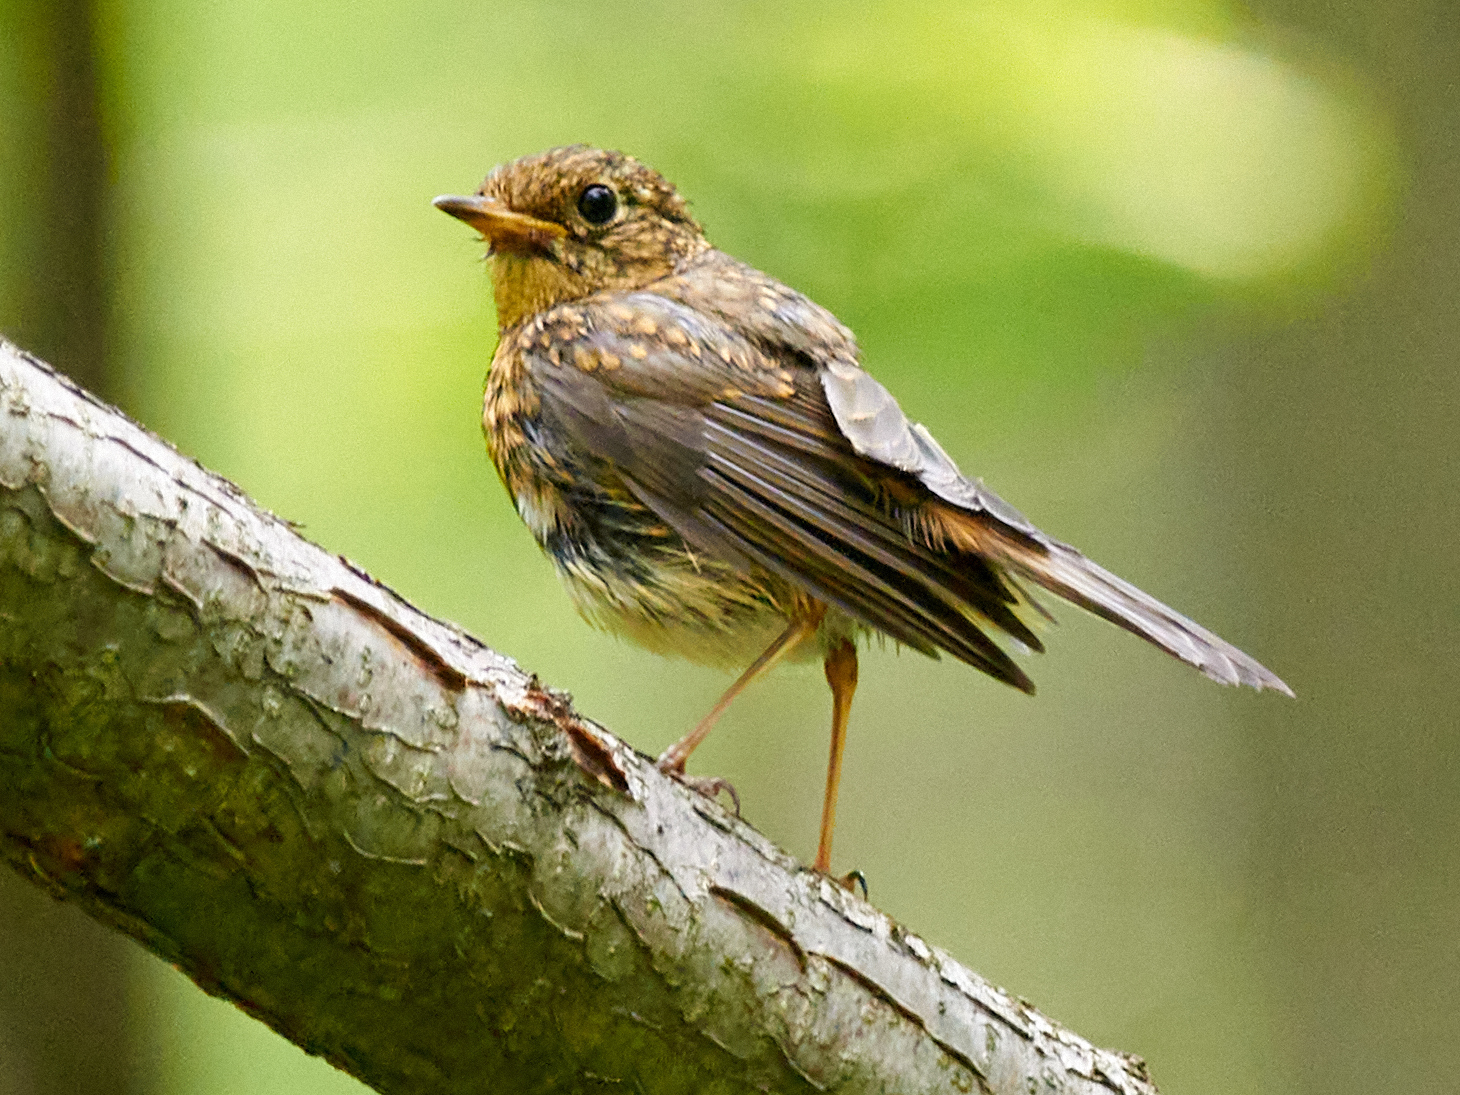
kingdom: Animalia
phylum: Chordata
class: Aves
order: Passeriformes
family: Muscicapidae
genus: Erithacus
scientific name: Erithacus rubecula
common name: European robin
